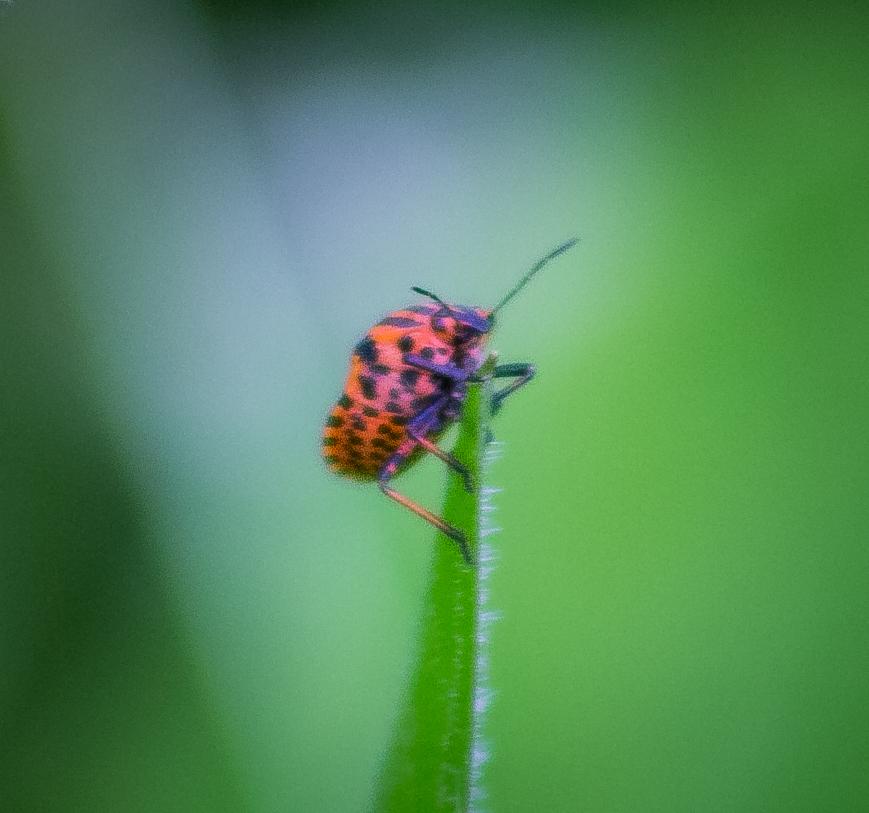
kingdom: Animalia
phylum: Arthropoda
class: Insecta
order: Hemiptera
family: Pentatomidae
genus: Graphosoma
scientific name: Graphosoma italicum
